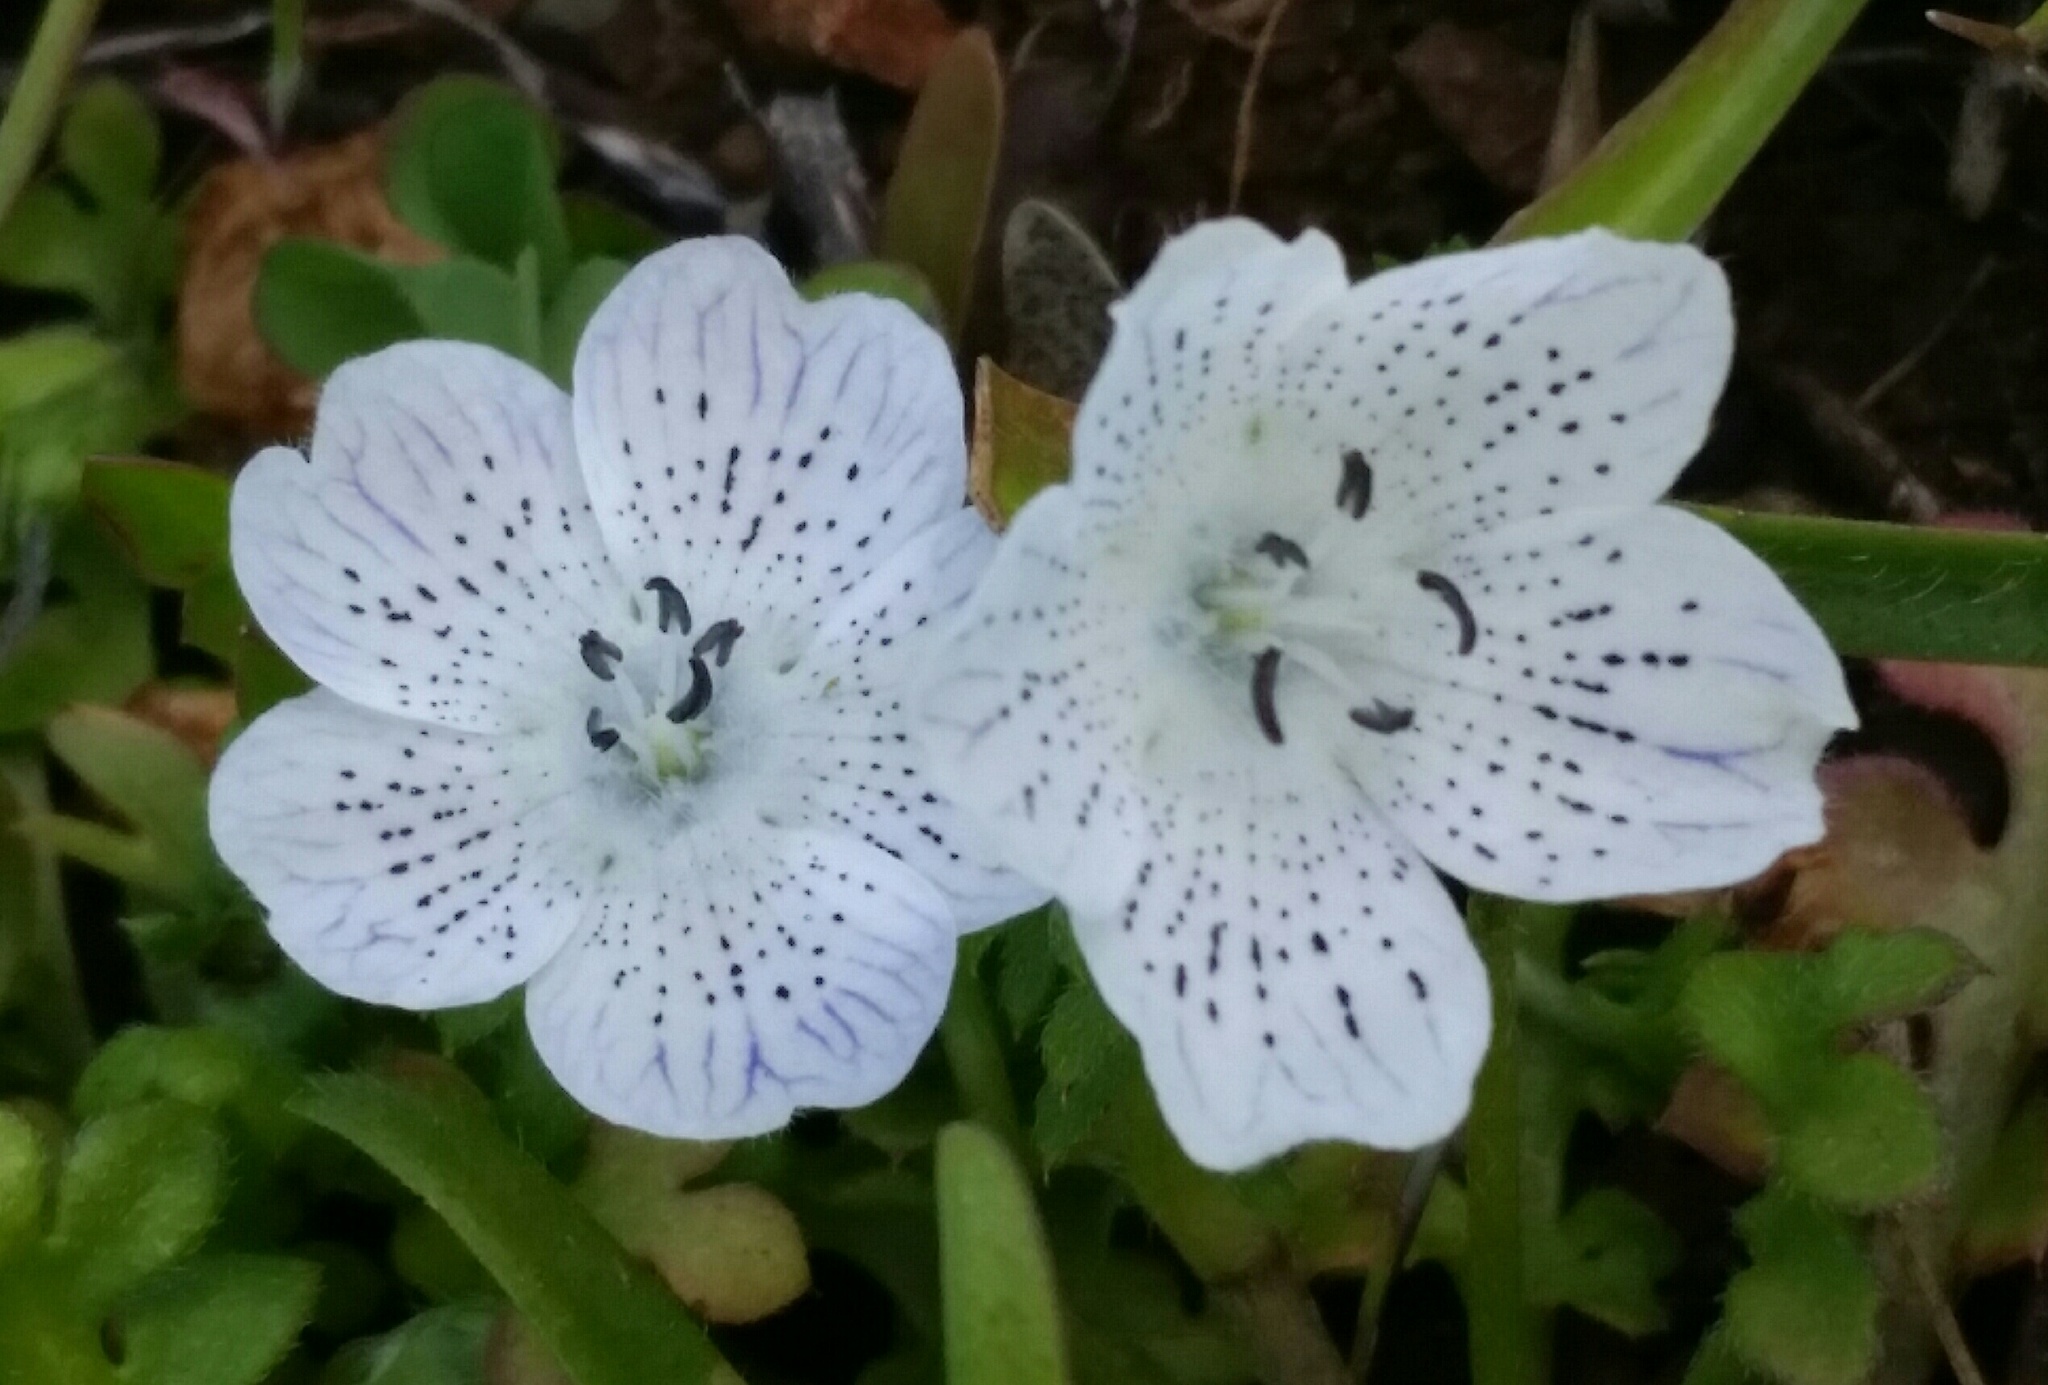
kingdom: Plantae
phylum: Tracheophyta
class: Magnoliopsida
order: Boraginales
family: Hydrophyllaceae
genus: Nemophila
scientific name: Nemophila menziesii
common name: Baby's-blue-eyes
